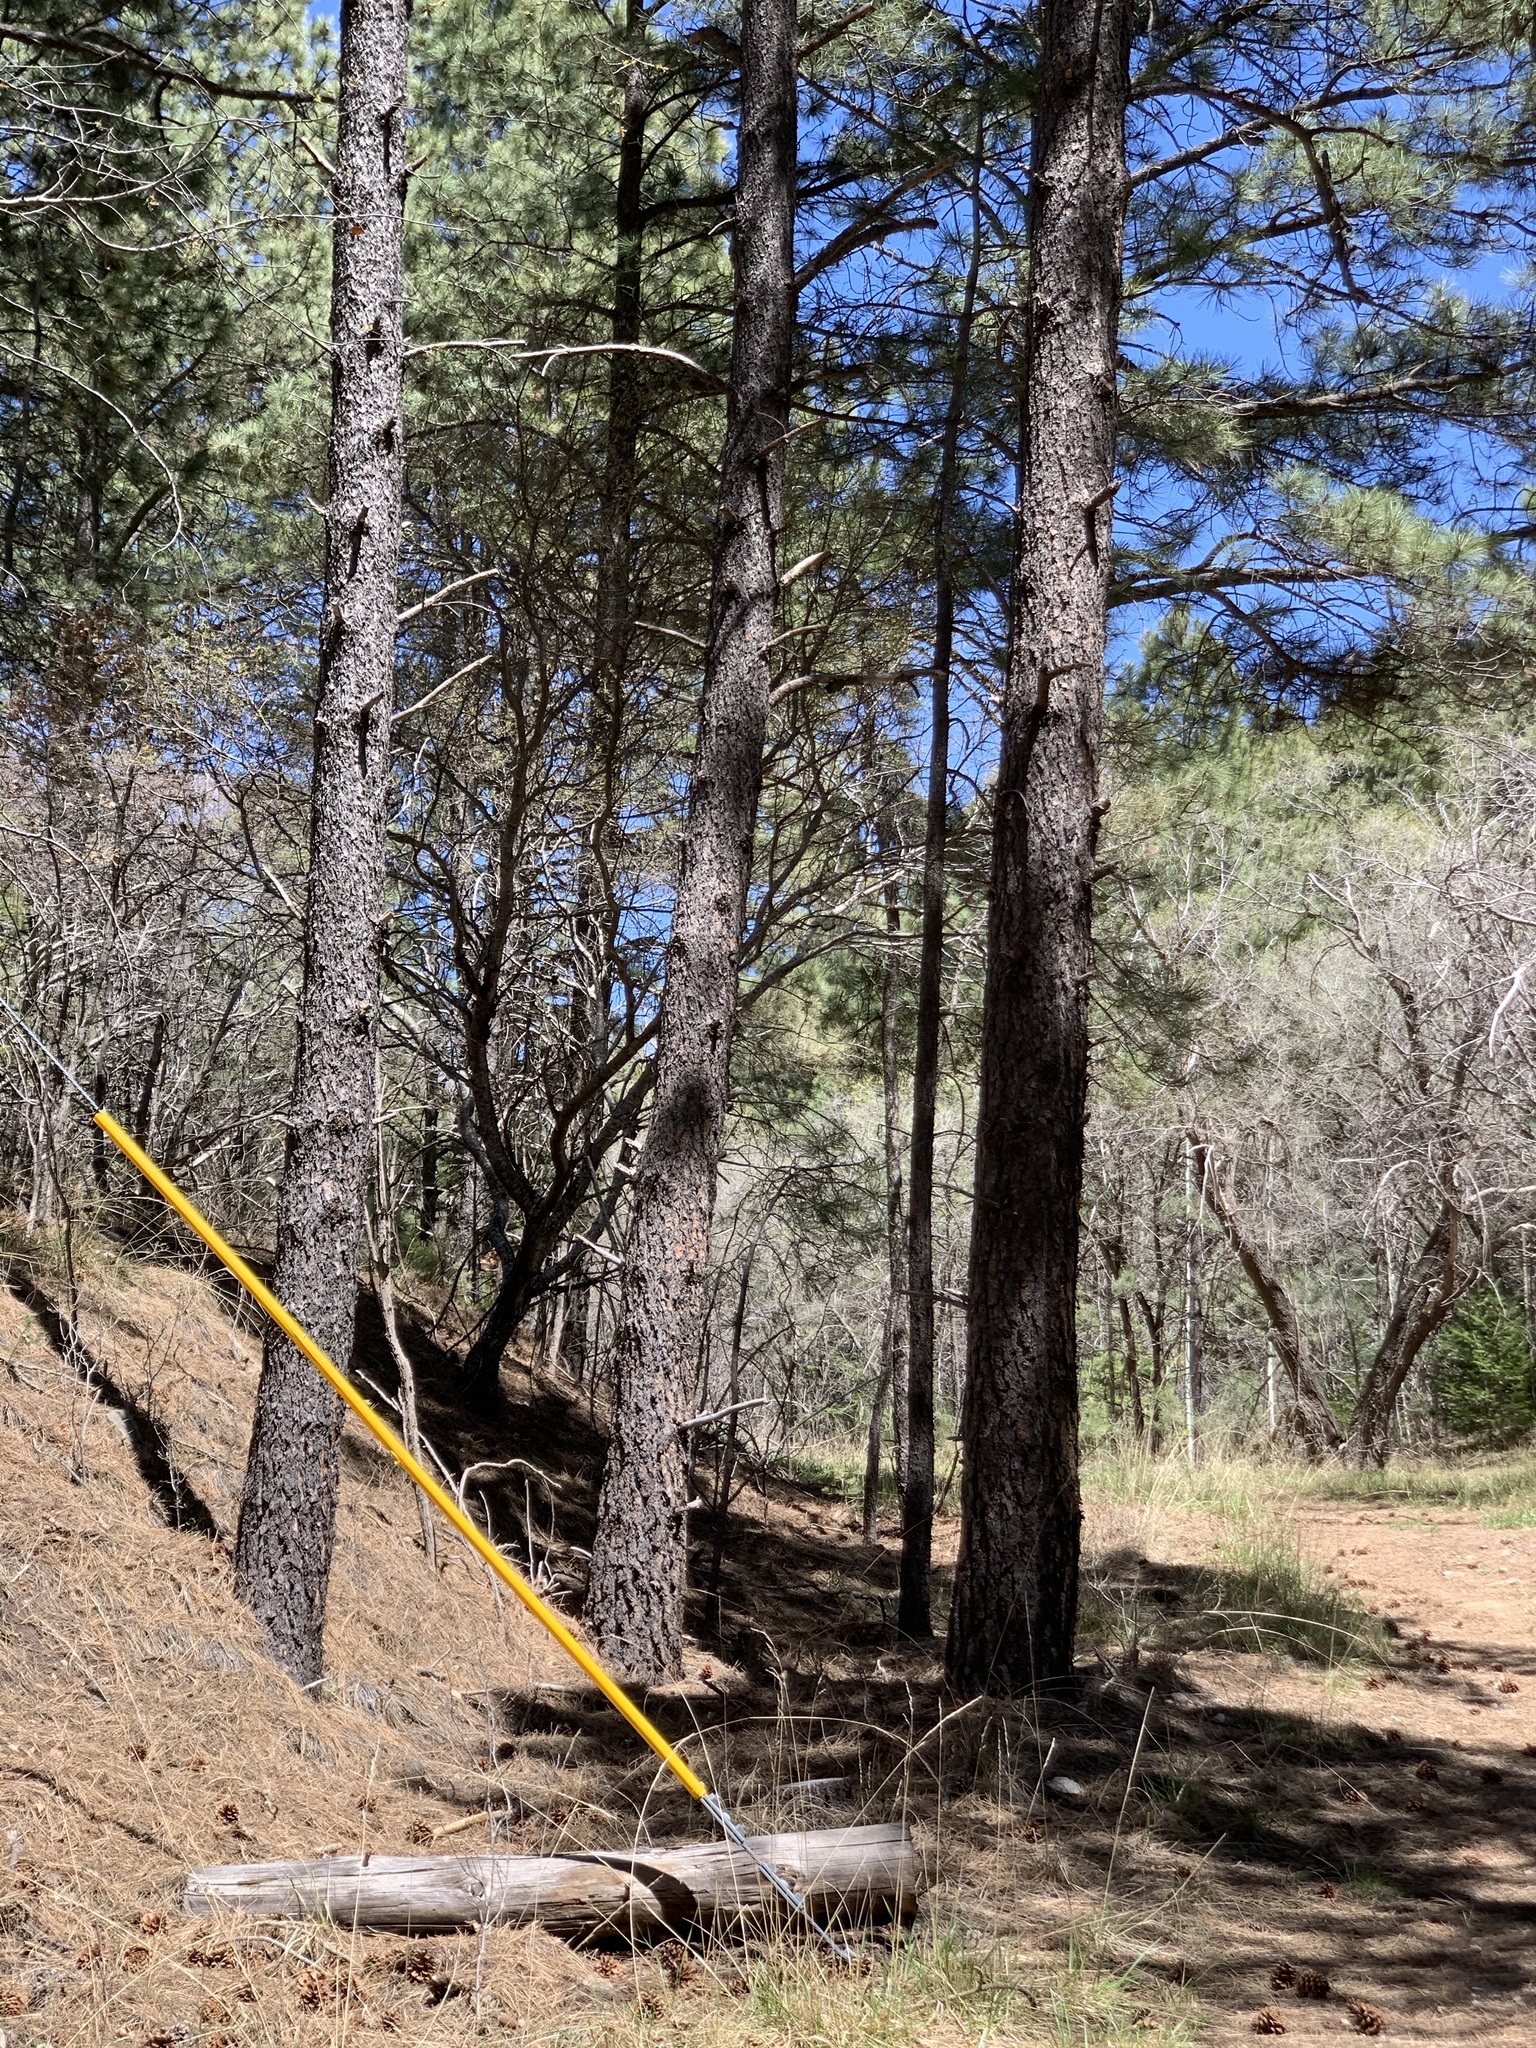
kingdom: Plantae
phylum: Tracheophyta
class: Pinopsida
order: Pinales
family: Pinaceae
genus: Pinus
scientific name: Pinus ponderosa
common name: Western yellow-pine
